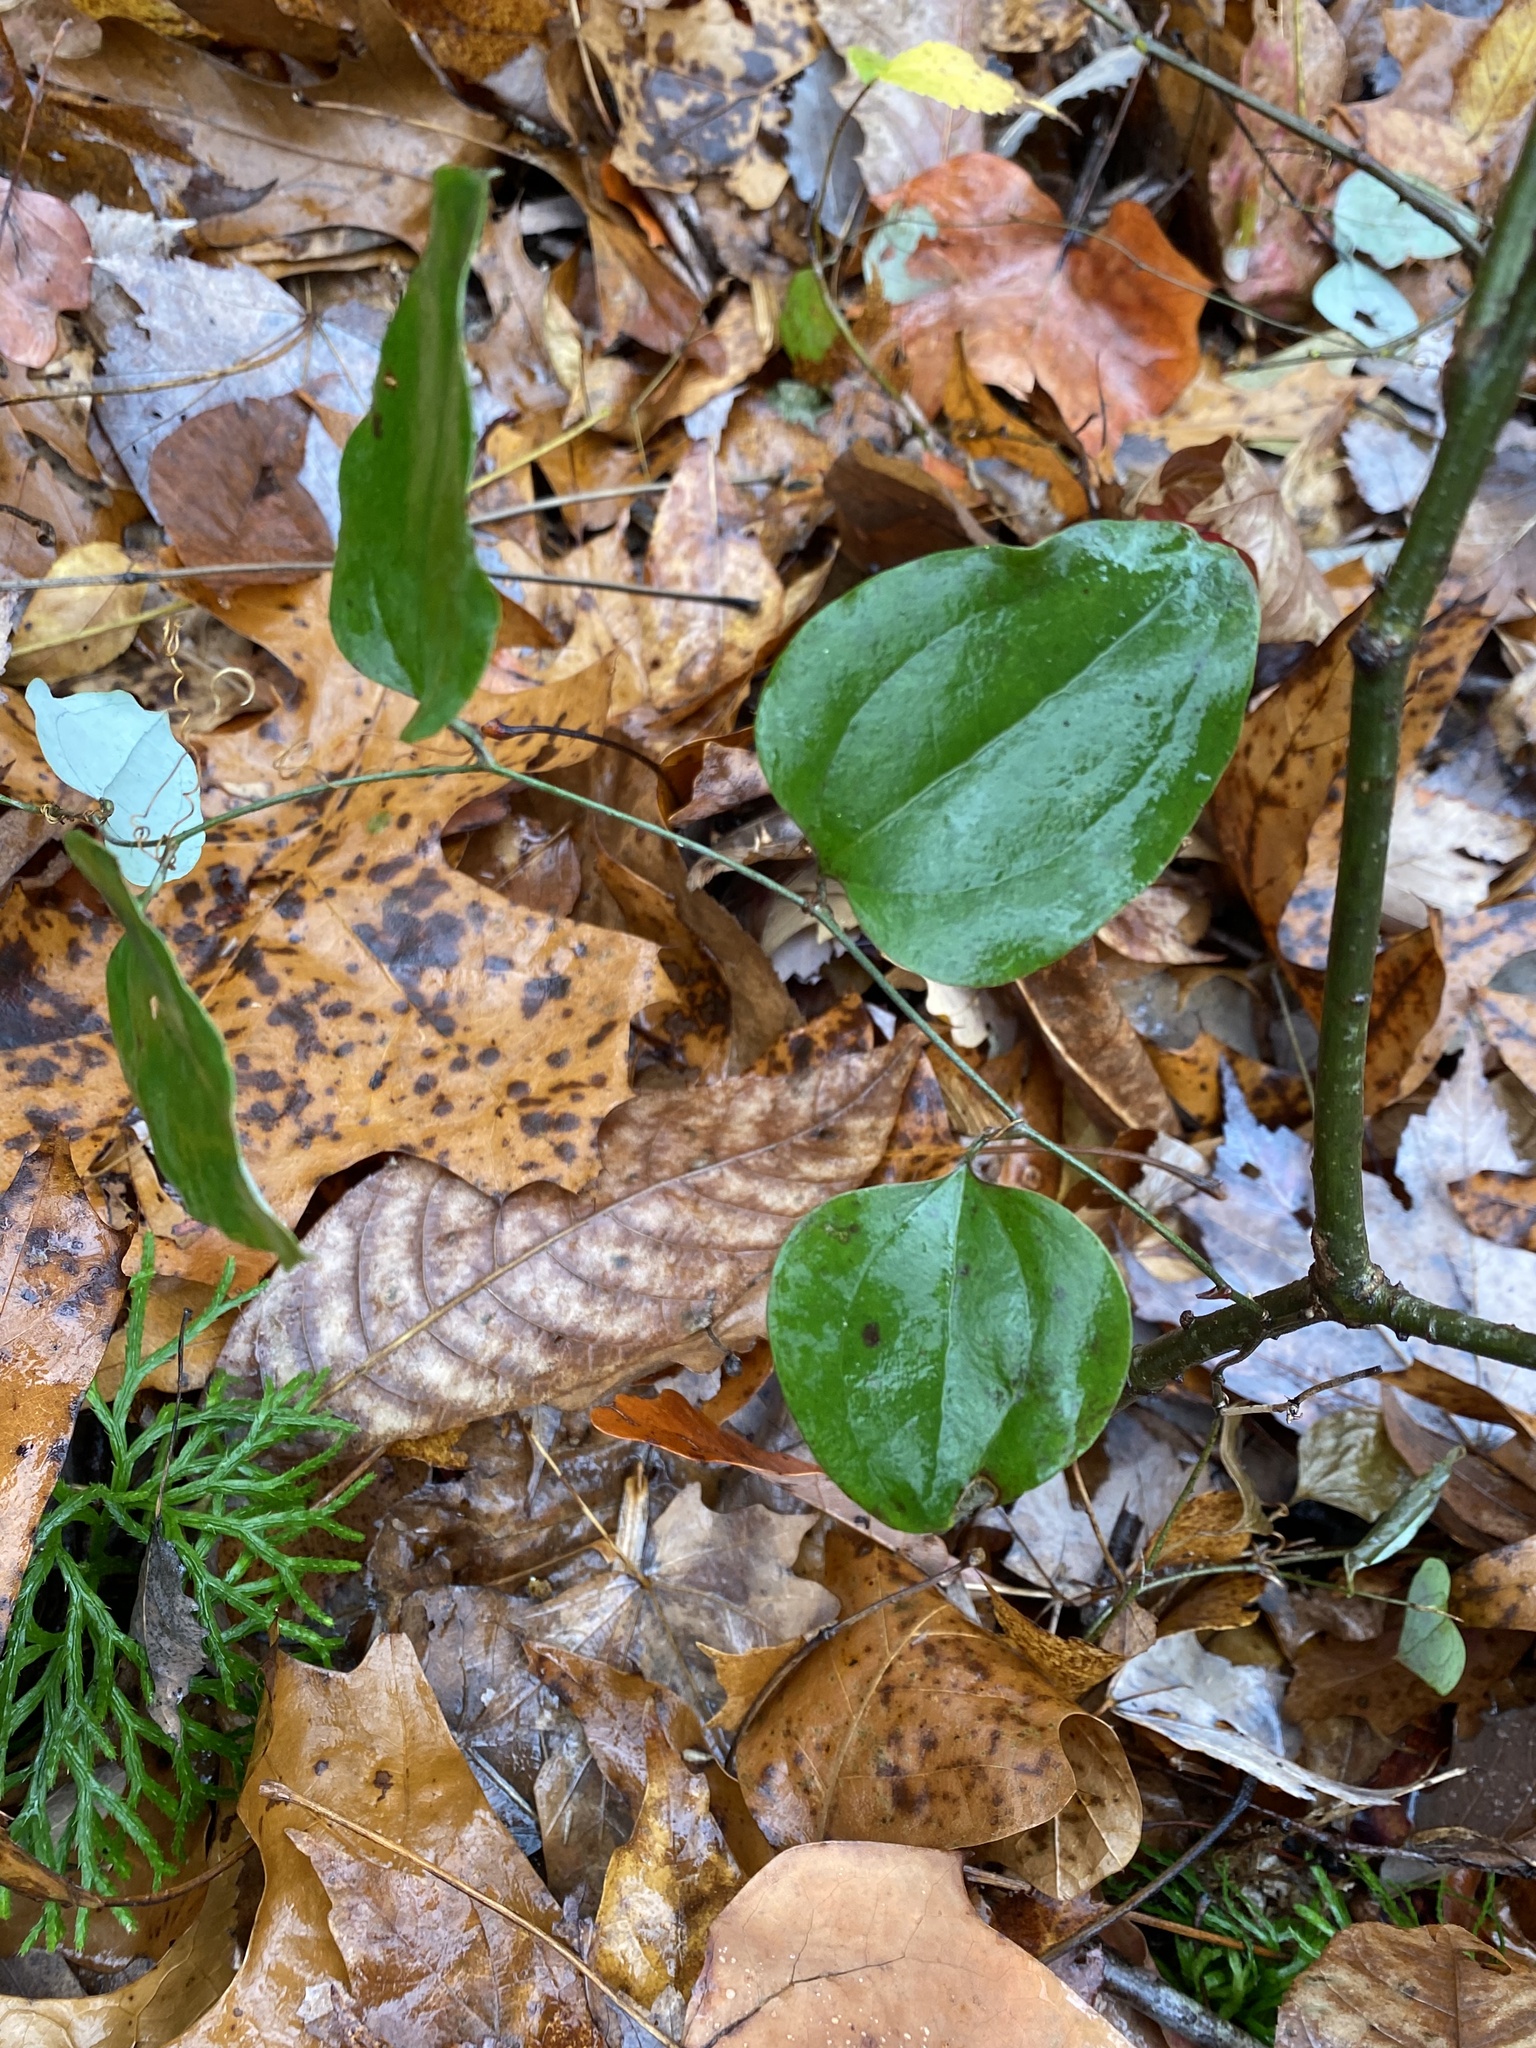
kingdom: Plantae
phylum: Tracheophyta
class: Liliopsida
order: Liliales
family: Smilacaceae
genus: Smilax
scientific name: Smilax glauca
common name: Cat greenbrier
